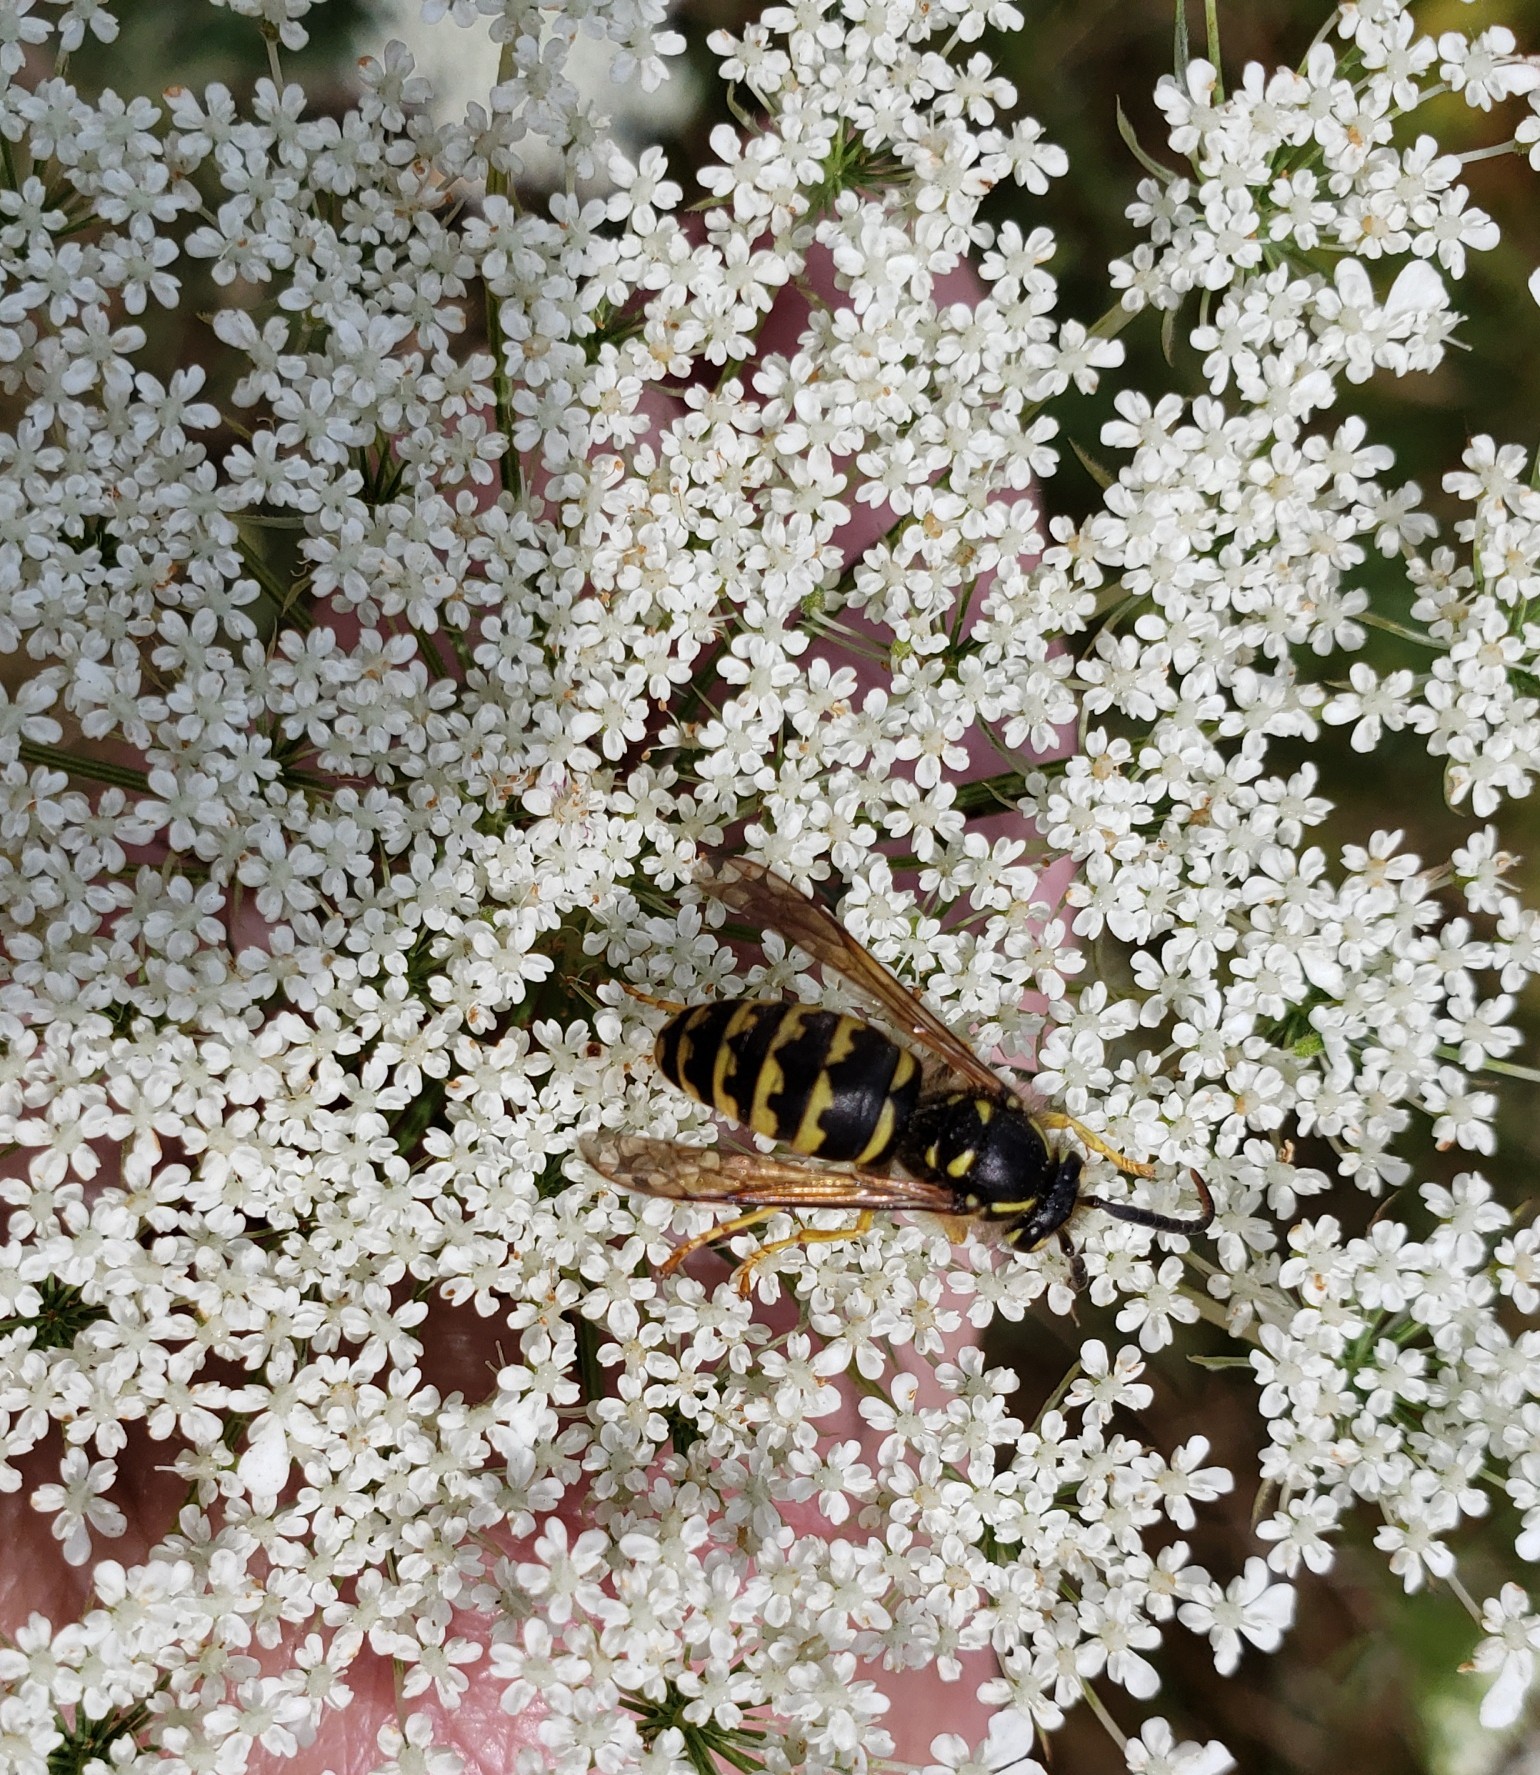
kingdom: Animalia
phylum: Arthropoda
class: Insecta
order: Hymenoptera
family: Vespidae
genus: Dolichovespula
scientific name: Dolichovespula arenaria
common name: Aerial yellowjacket
